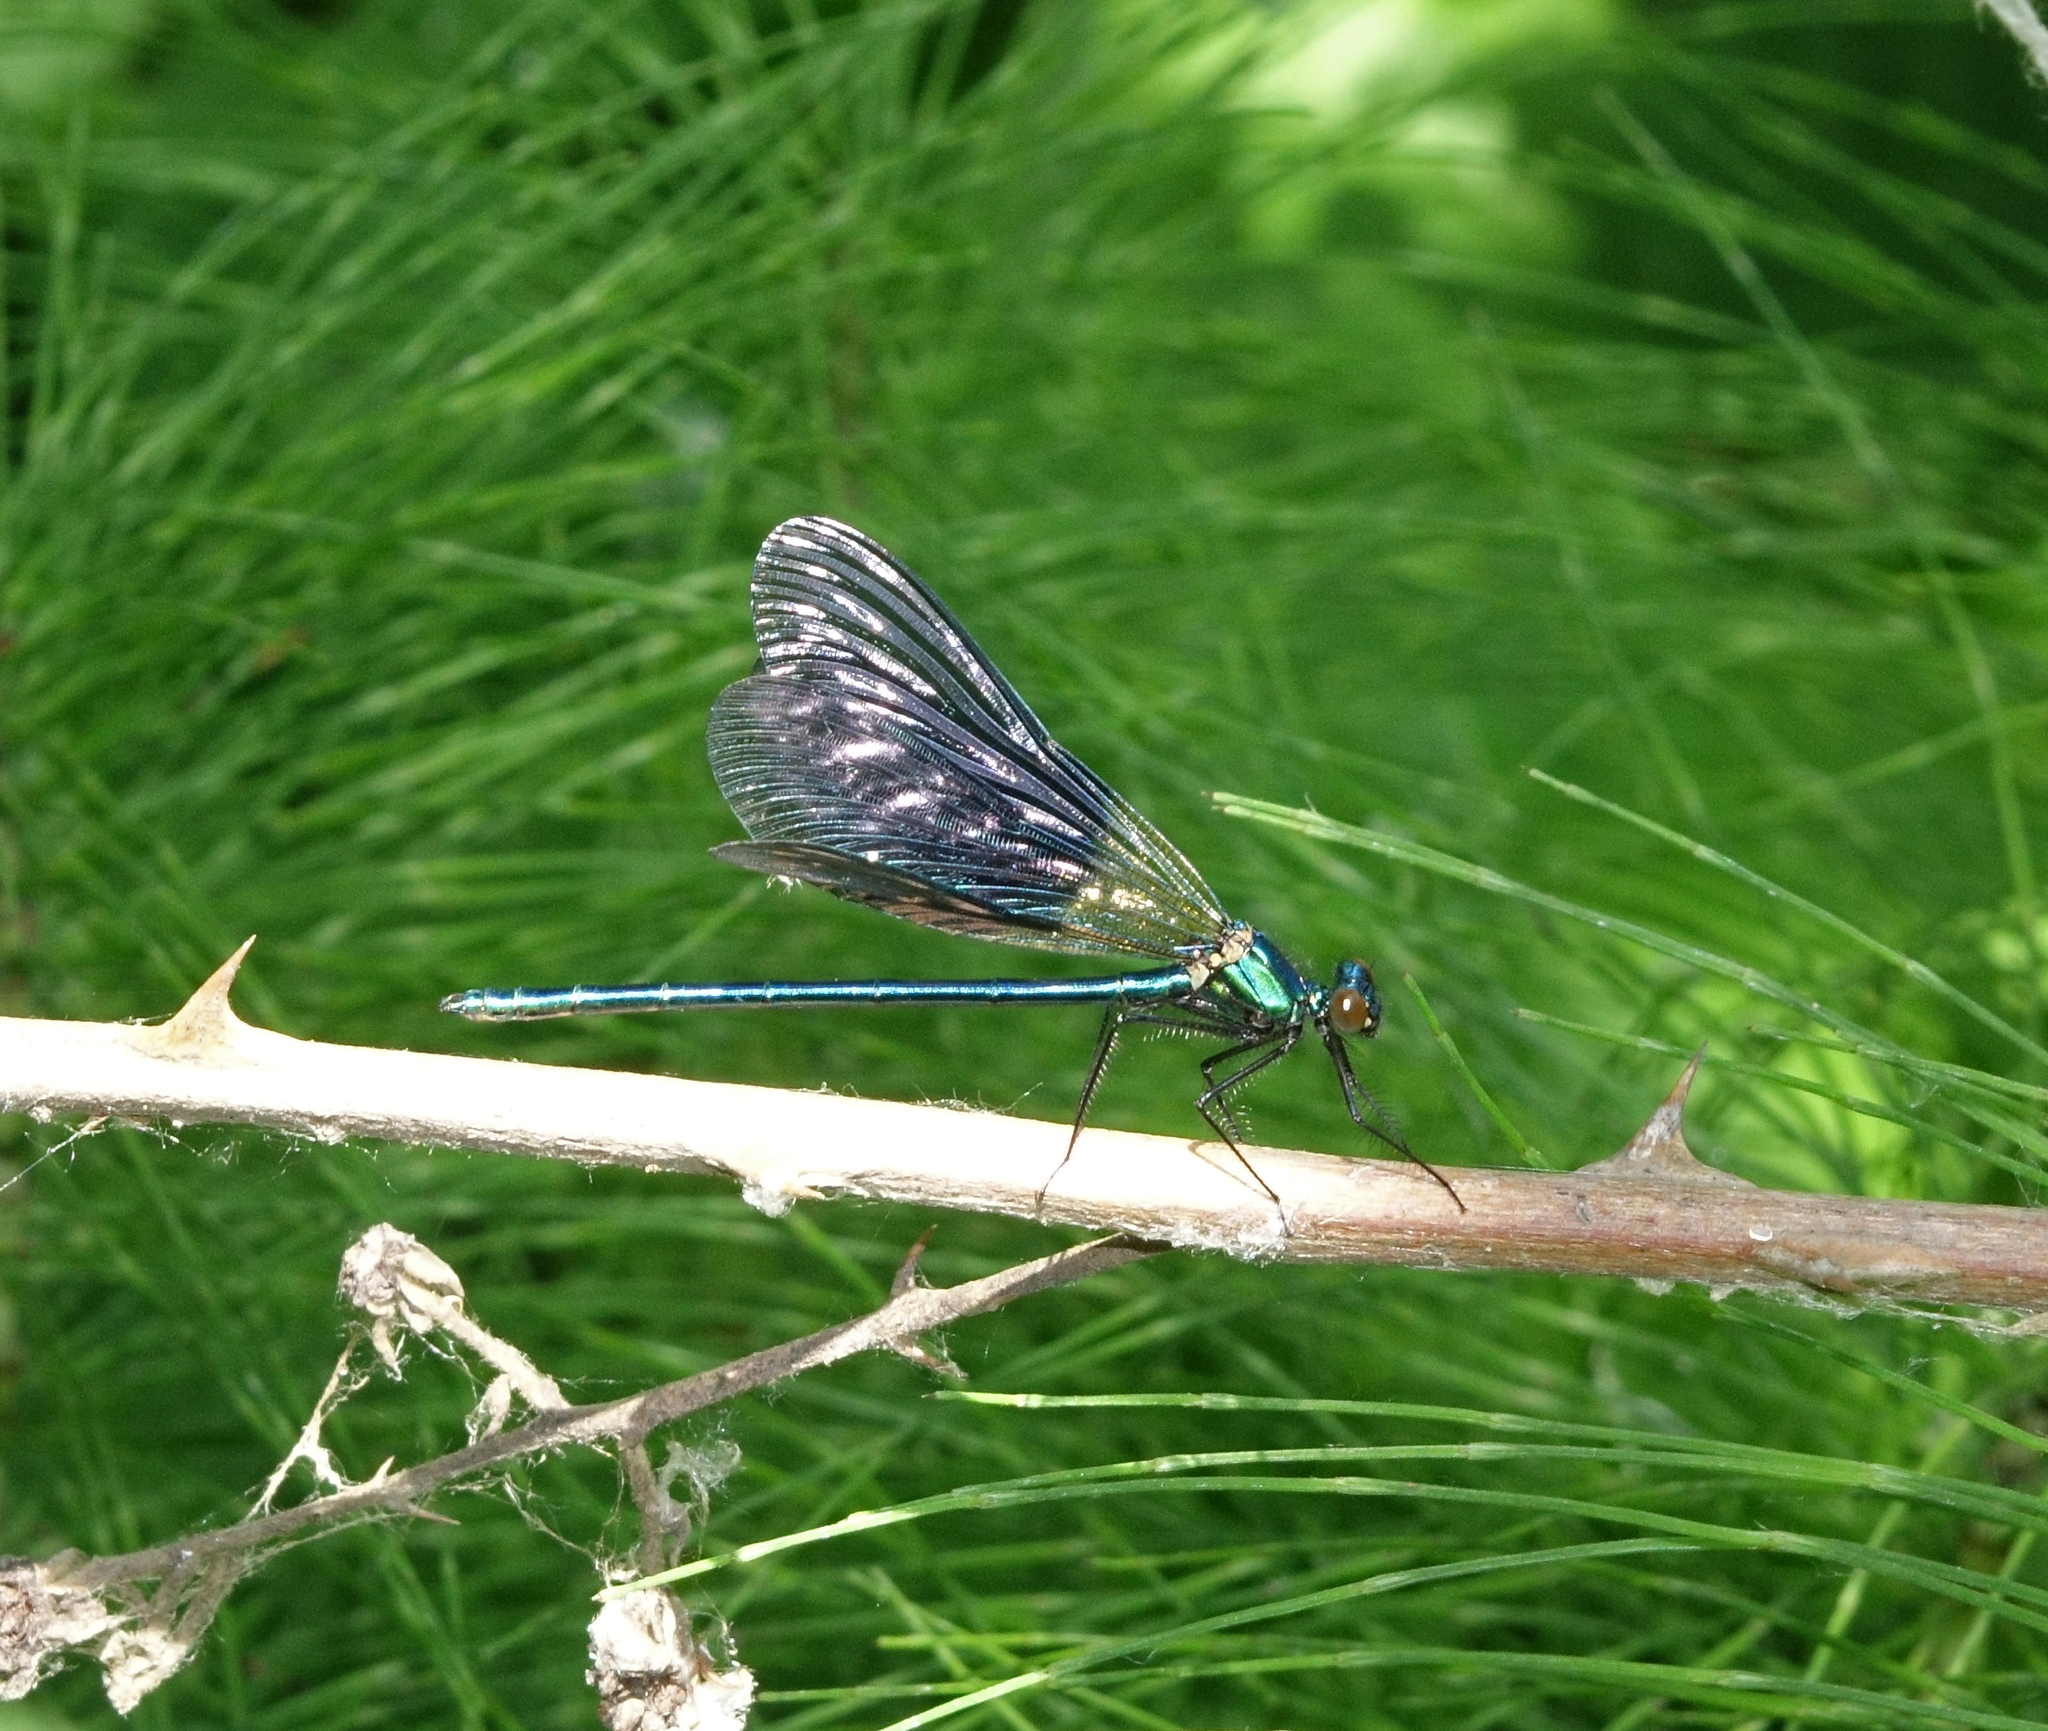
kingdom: Animalia
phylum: Arthropoda
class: Insecta
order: Odonata
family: Calopterygidae
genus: Calopteryx
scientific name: Calopteryx splendens
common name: Banded demoiselle
